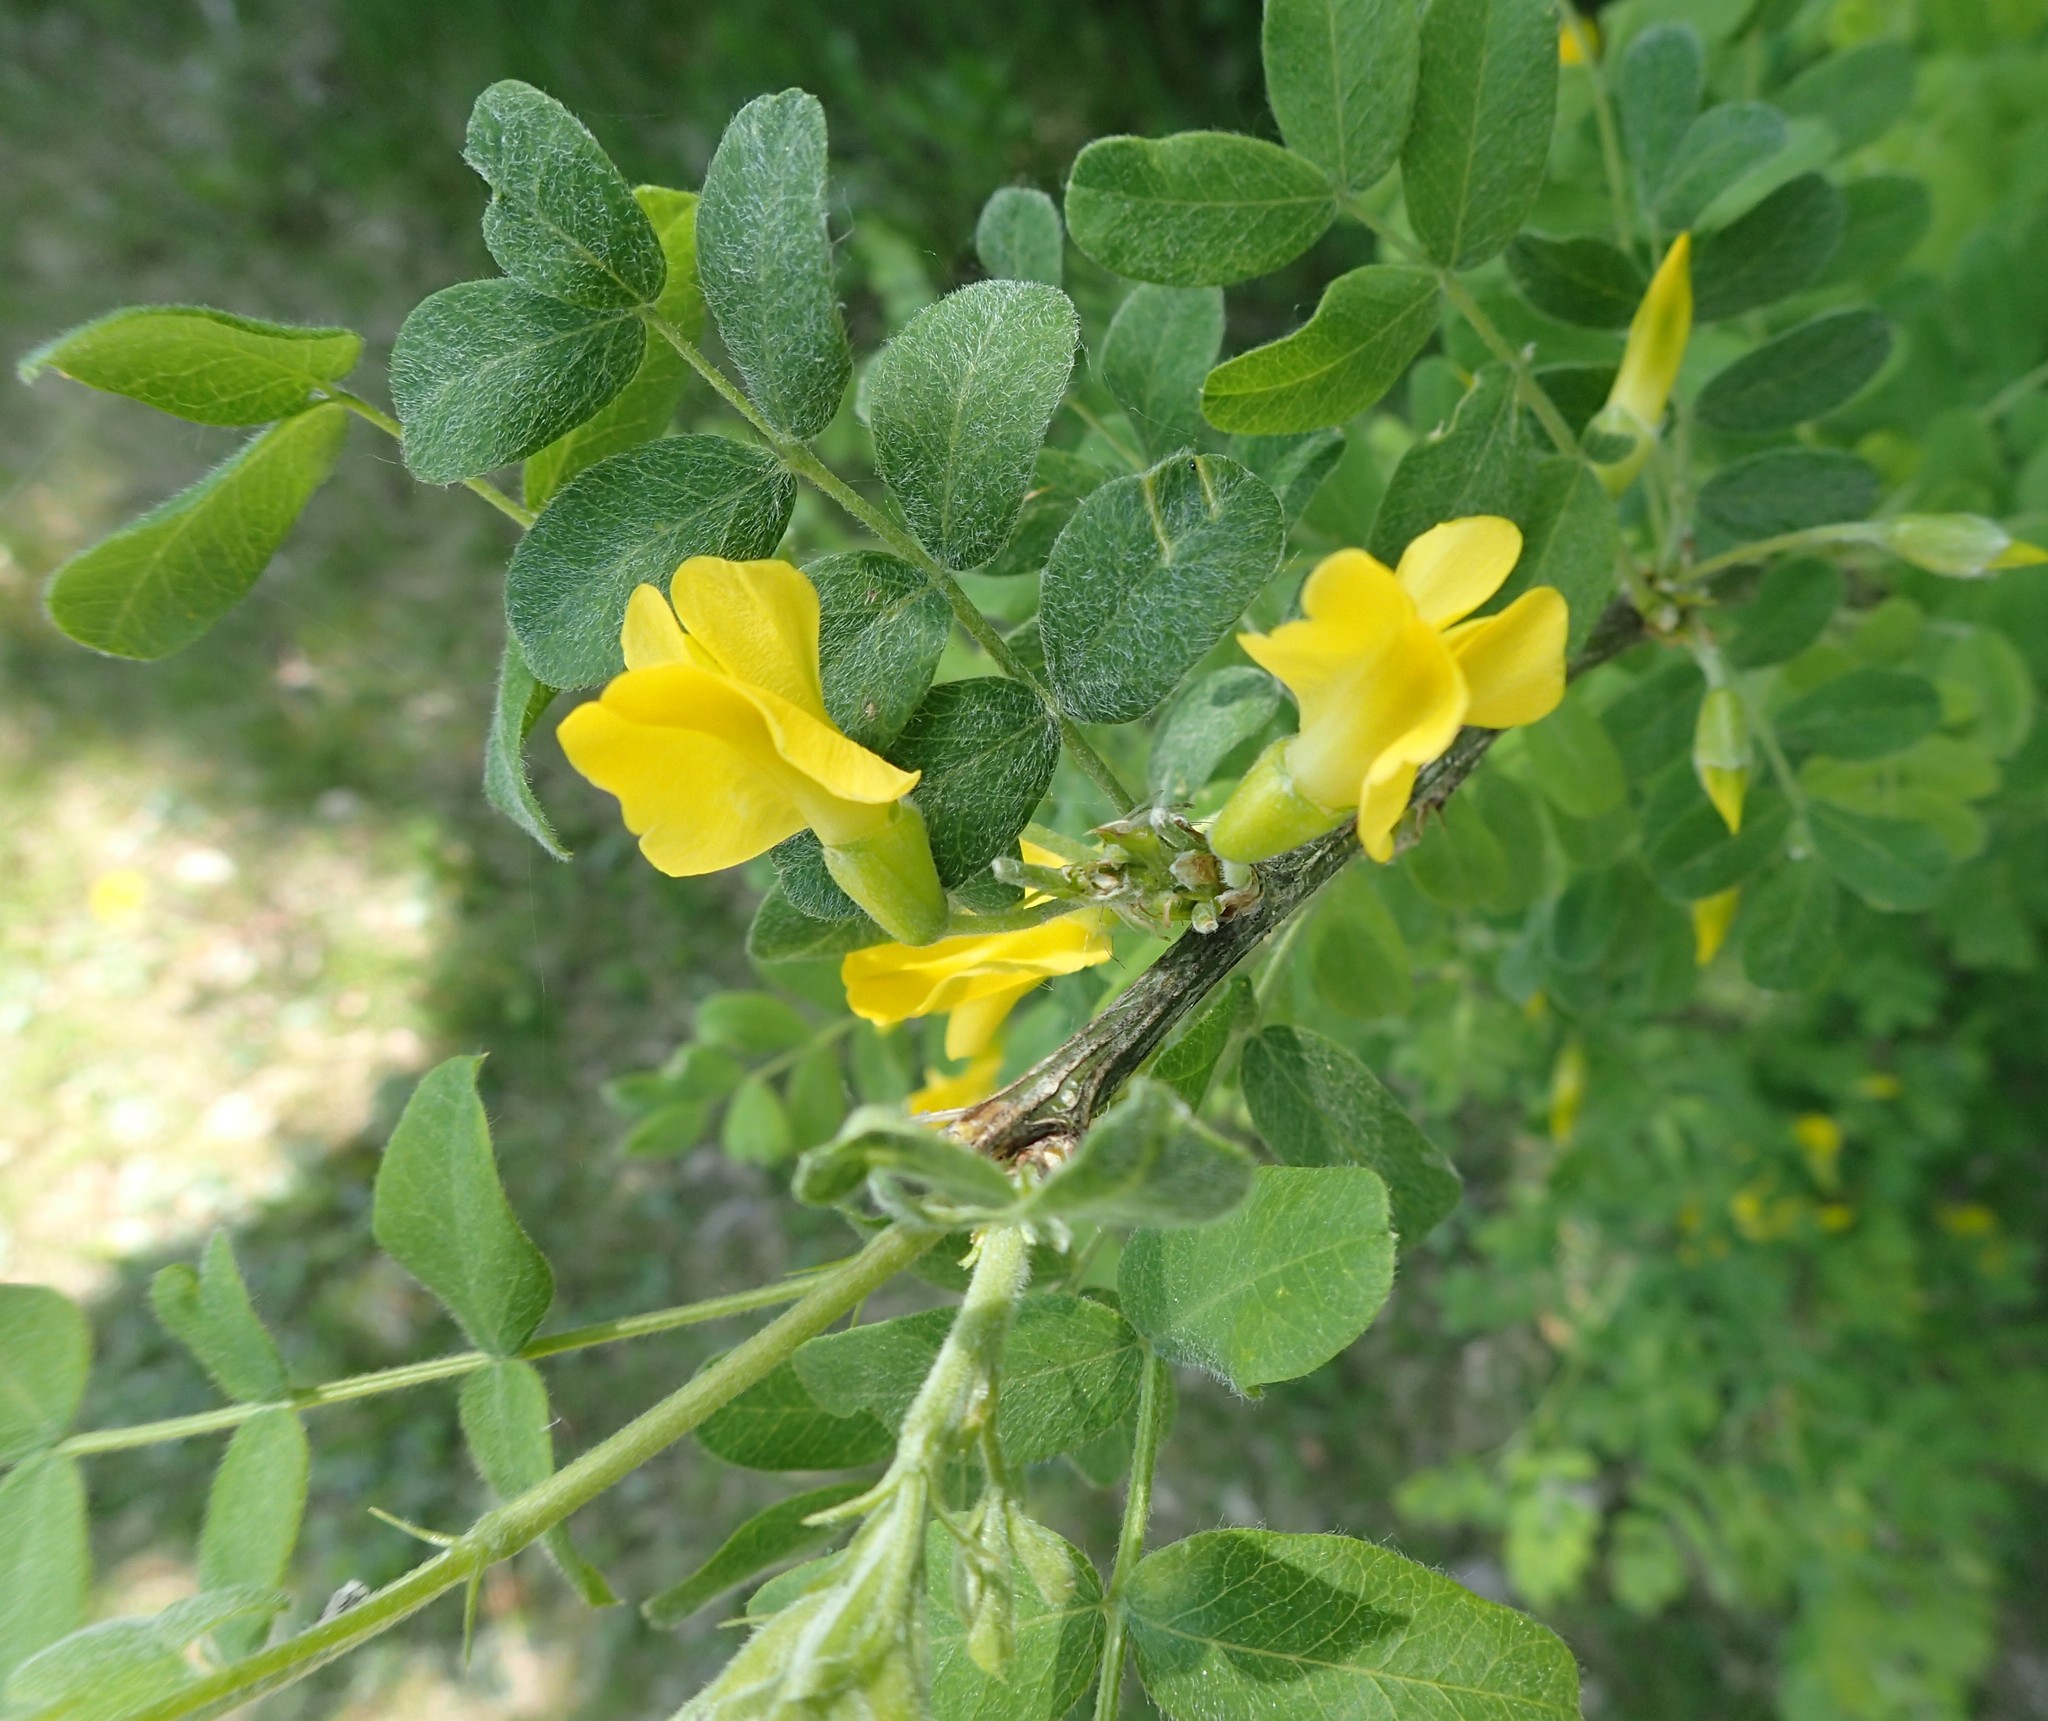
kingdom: Plantae
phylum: Tracheophyta
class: Magnoliopsida
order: Fabales
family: Fabaceae
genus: Caragana
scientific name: Caragana arborescens
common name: Siberian peashrub
